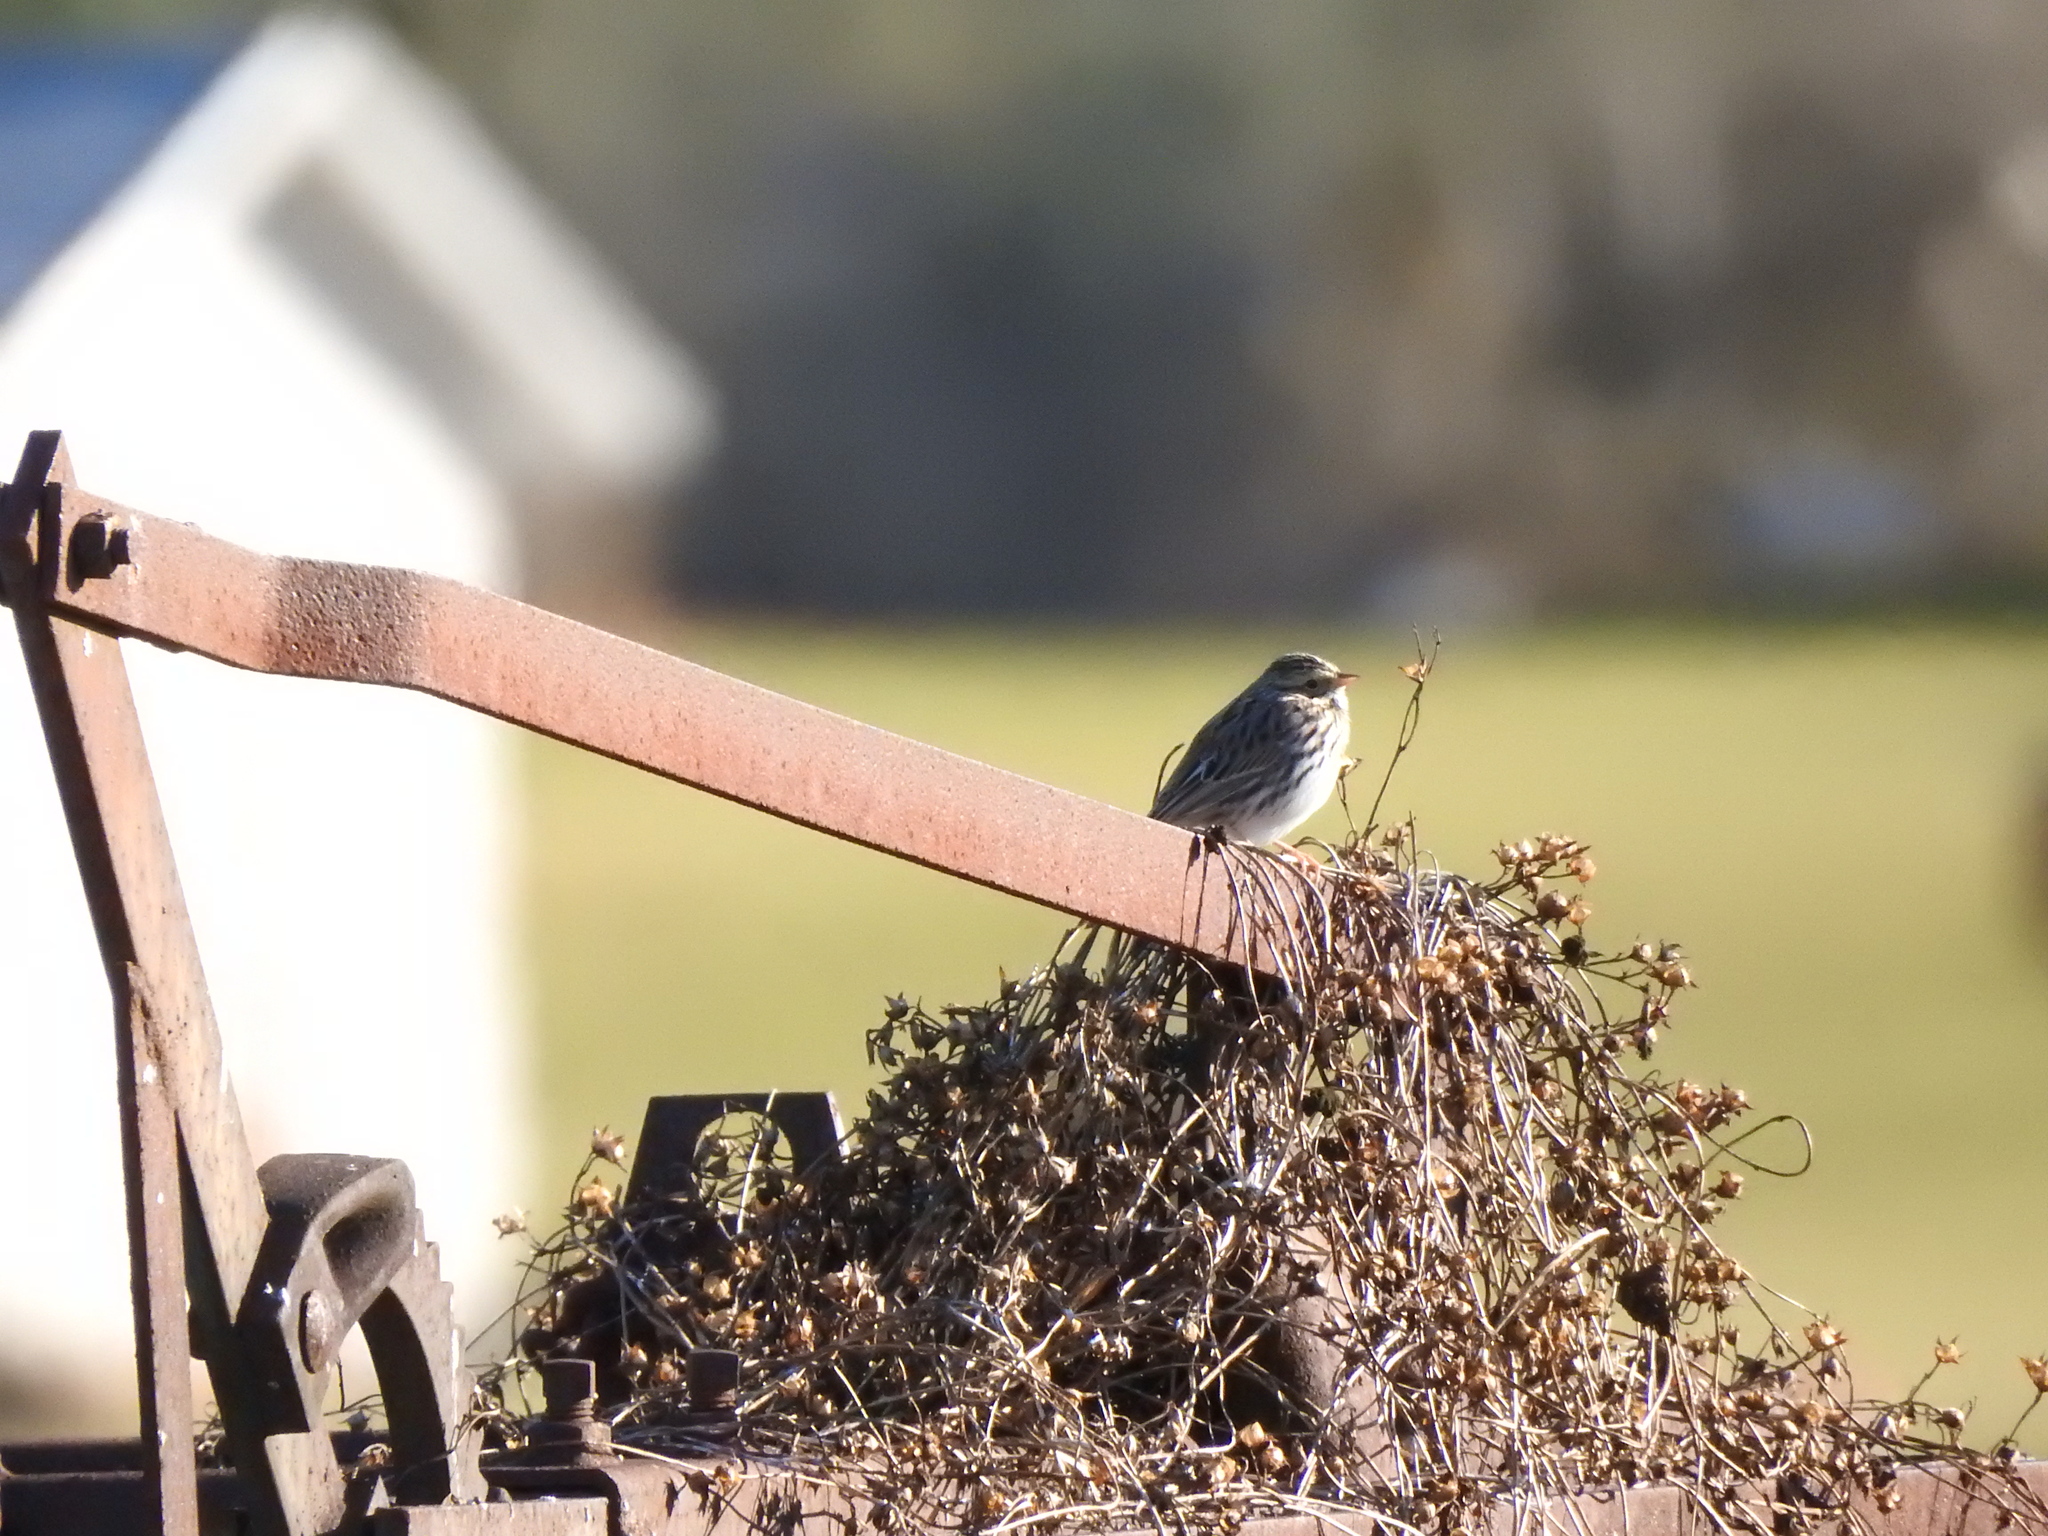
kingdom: Animalia
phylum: Chordata
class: Aves
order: Passeriformes
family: Passerellidae
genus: Passerculus
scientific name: Passerculus sandwichensis
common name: Savannah sparrow
